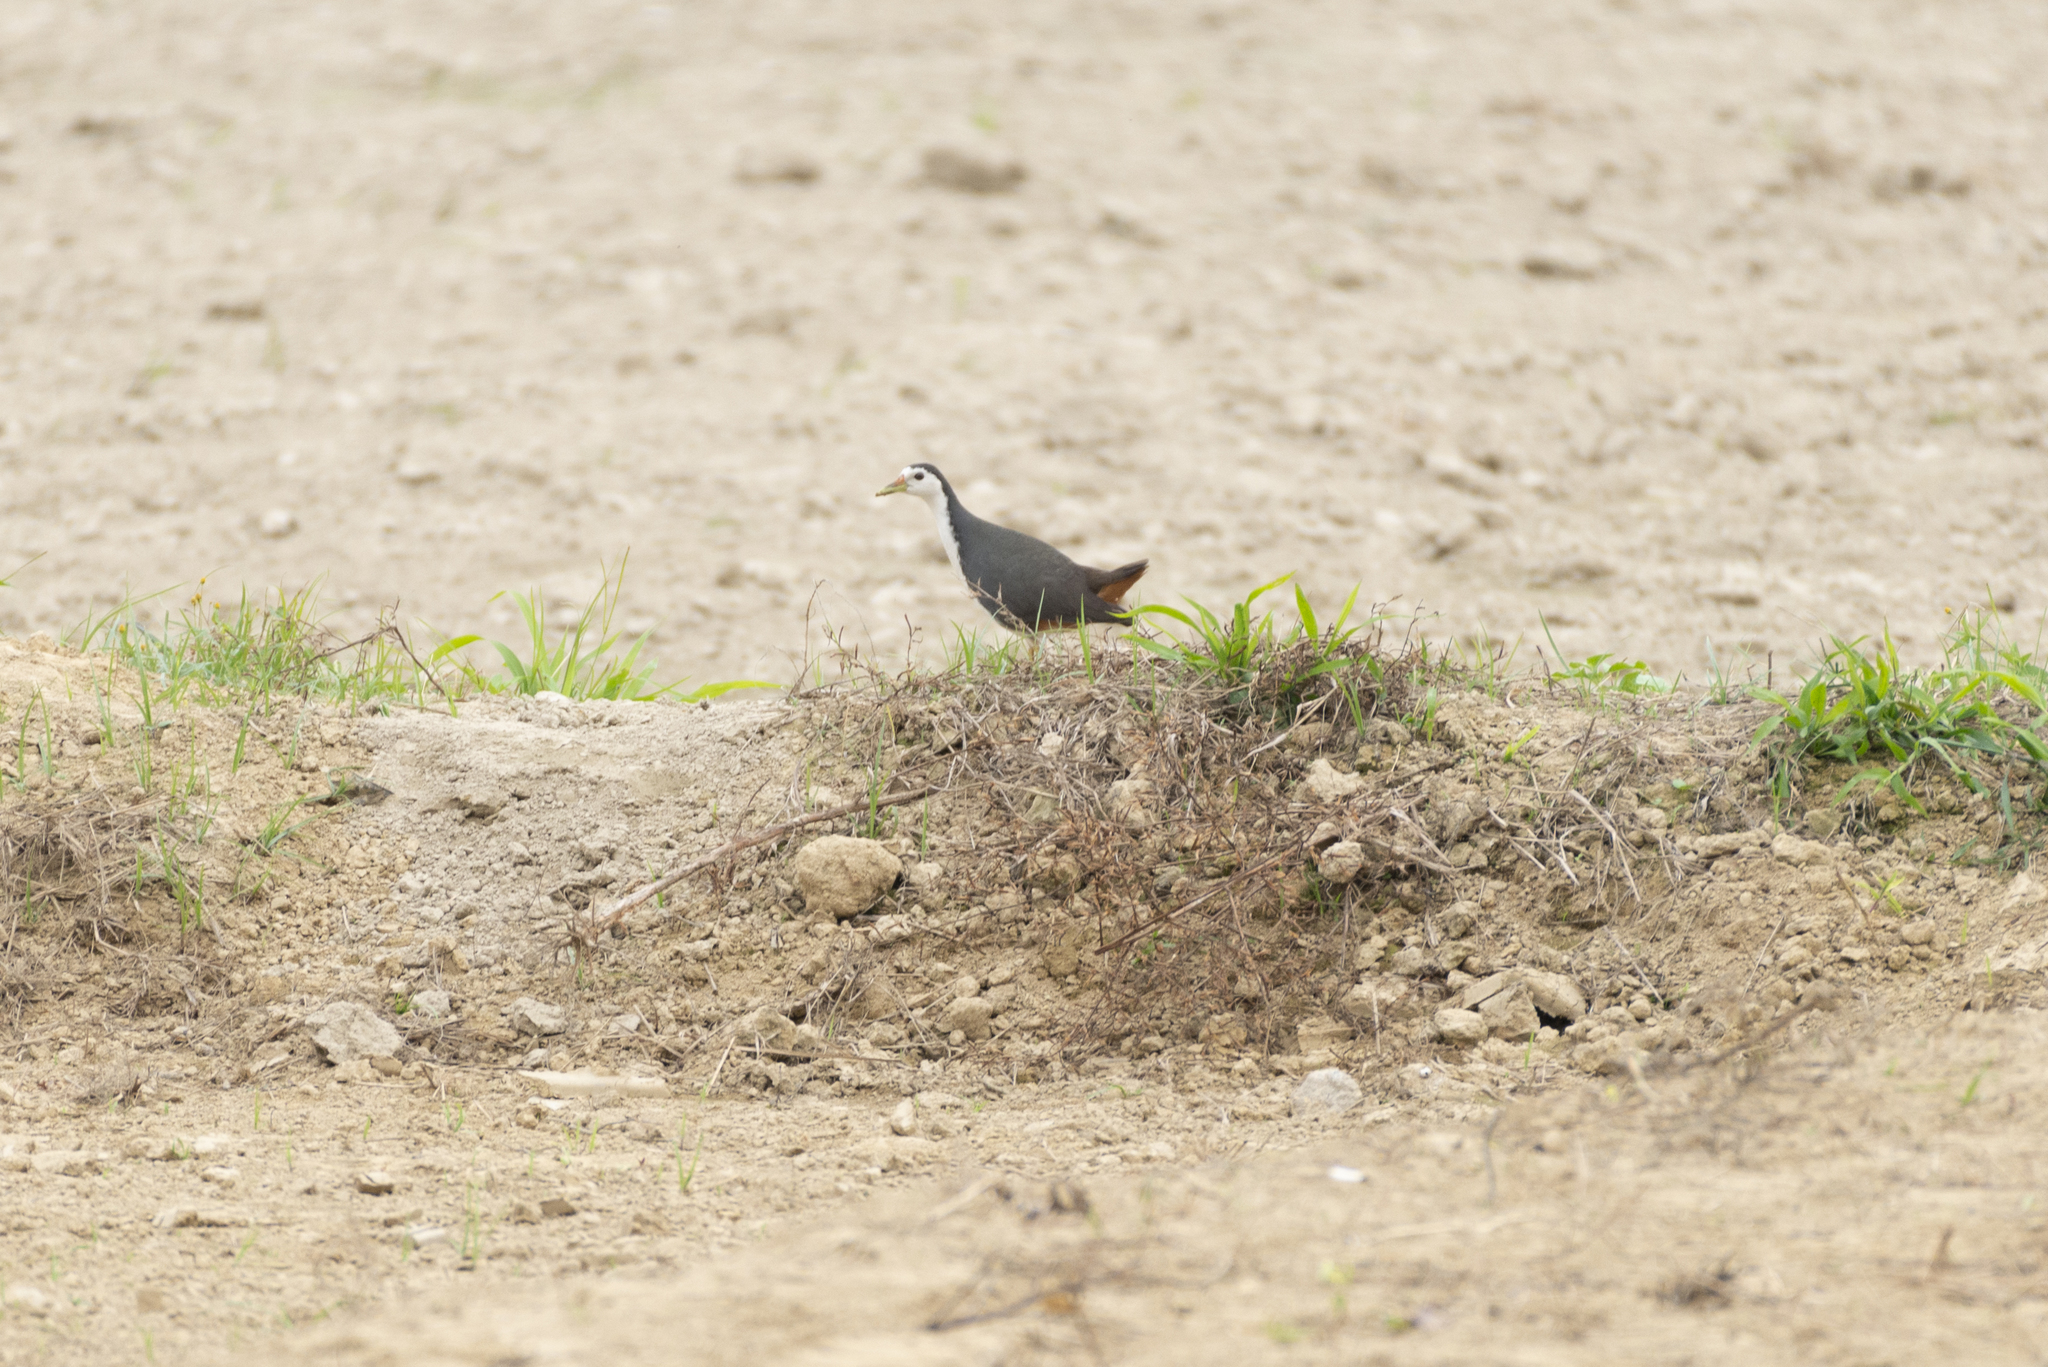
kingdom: Animalia
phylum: Chordata
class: Aves
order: Gruiformes
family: Rallidae
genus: Amaurornis
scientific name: Amaurornis phoenicurus
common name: White-breasted waterhen
